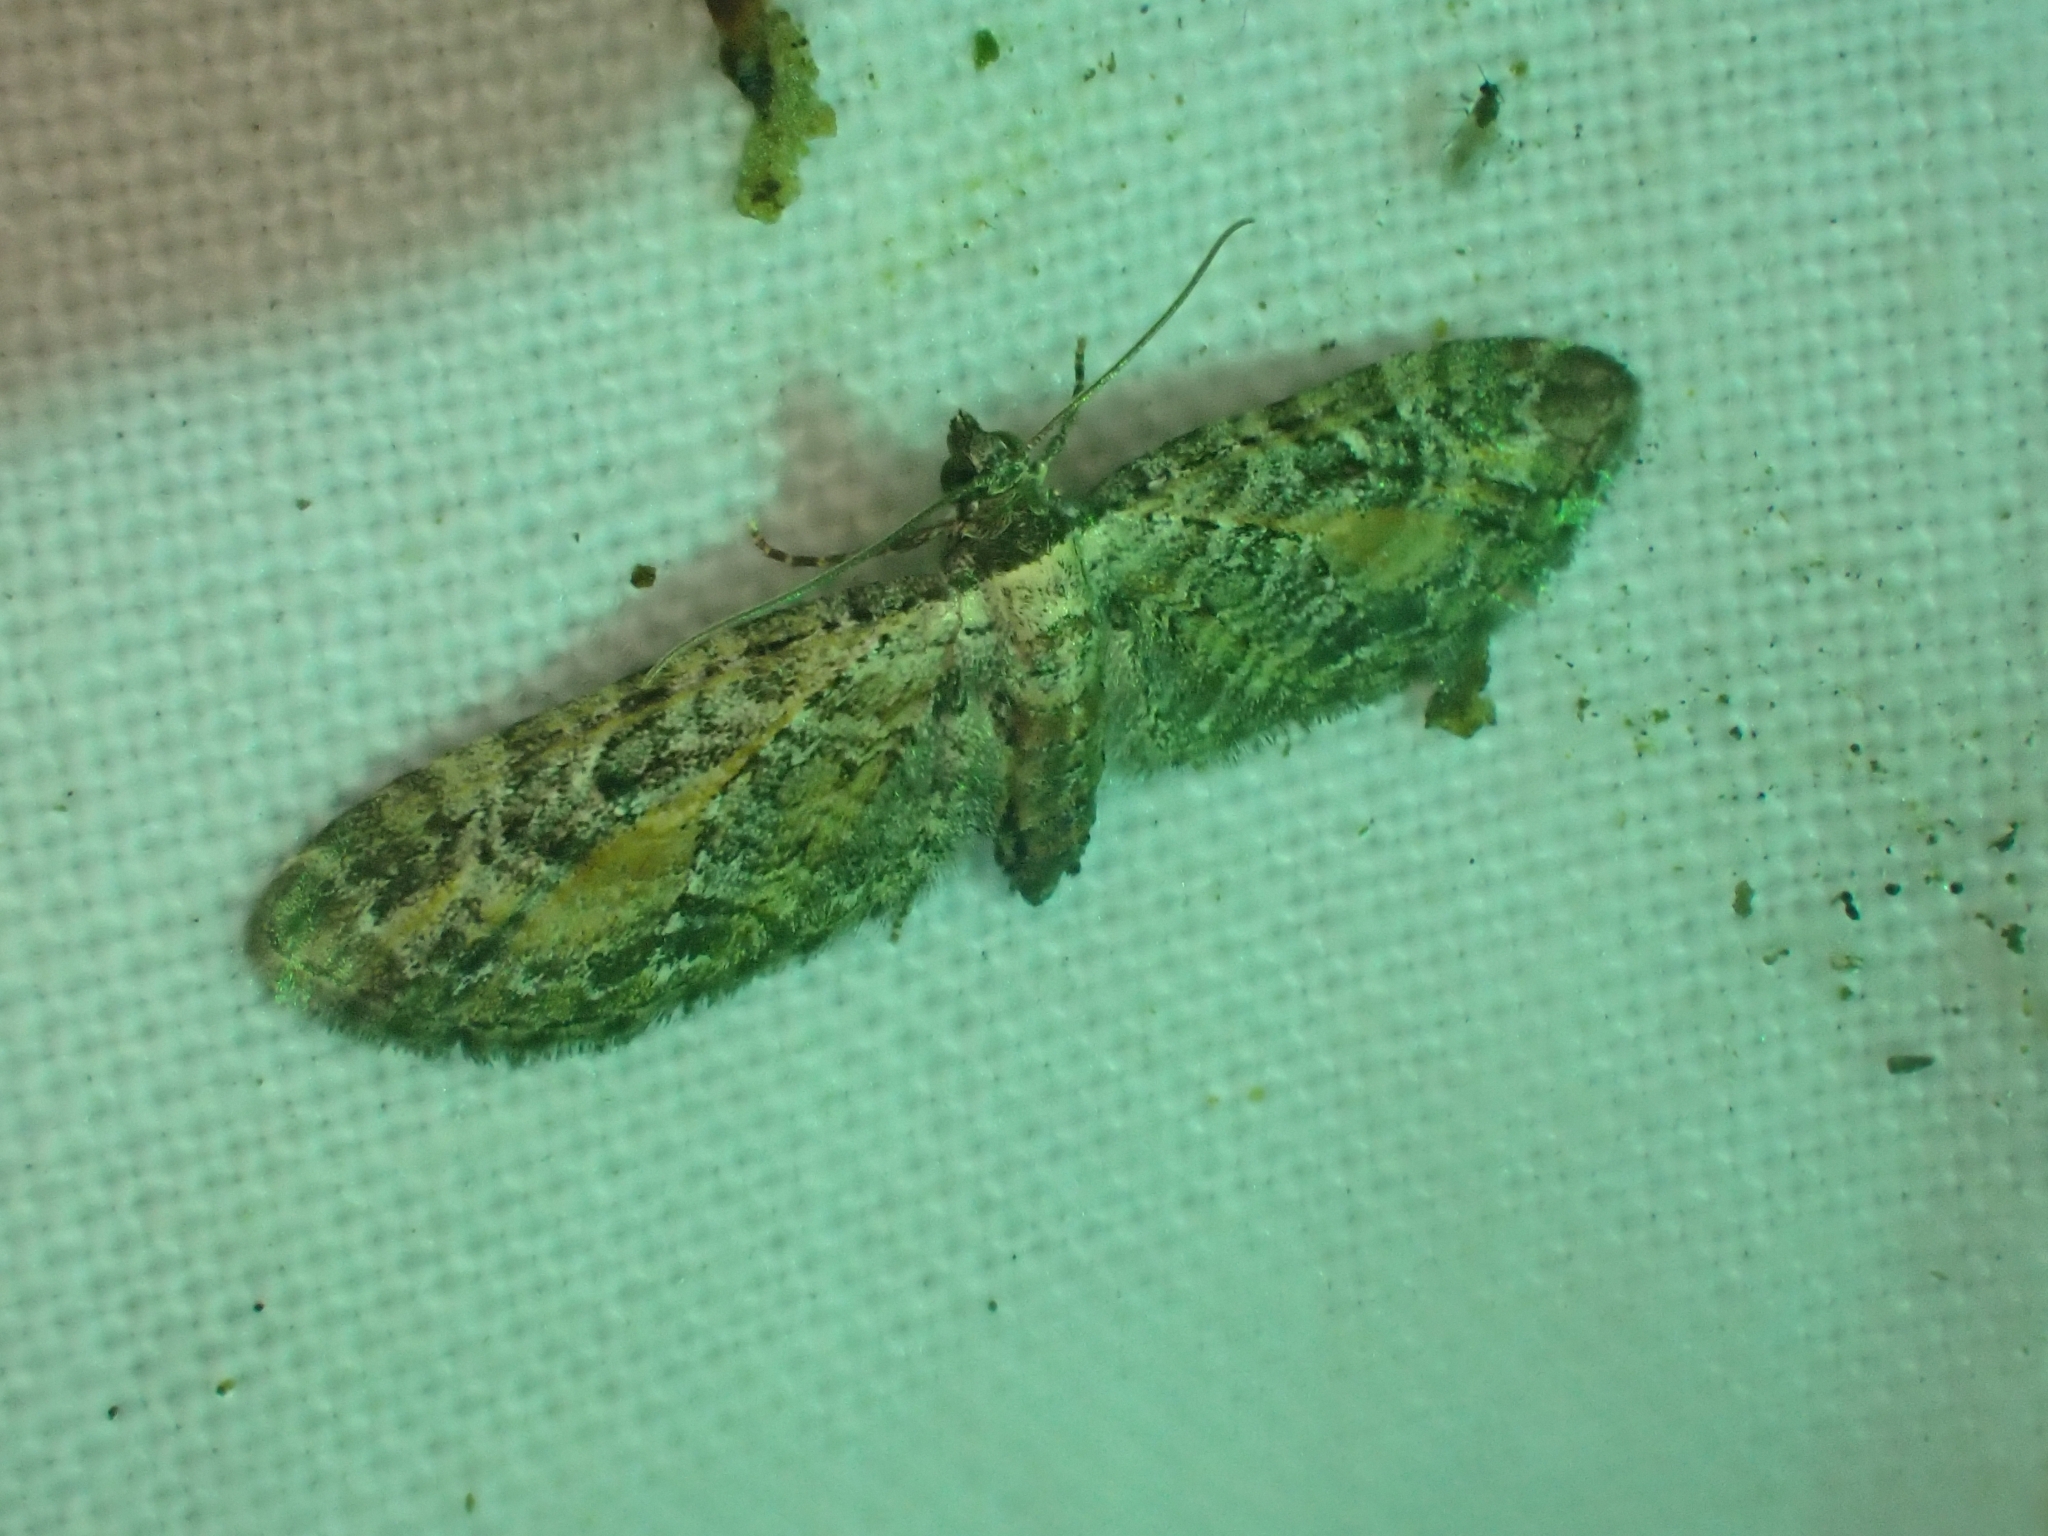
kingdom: Animalia
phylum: Arthropoda
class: Insecta
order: Lepidoptera
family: Geometridae
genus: Eupithecia
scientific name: Eupithecia icterata
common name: Tawny speckled pug
